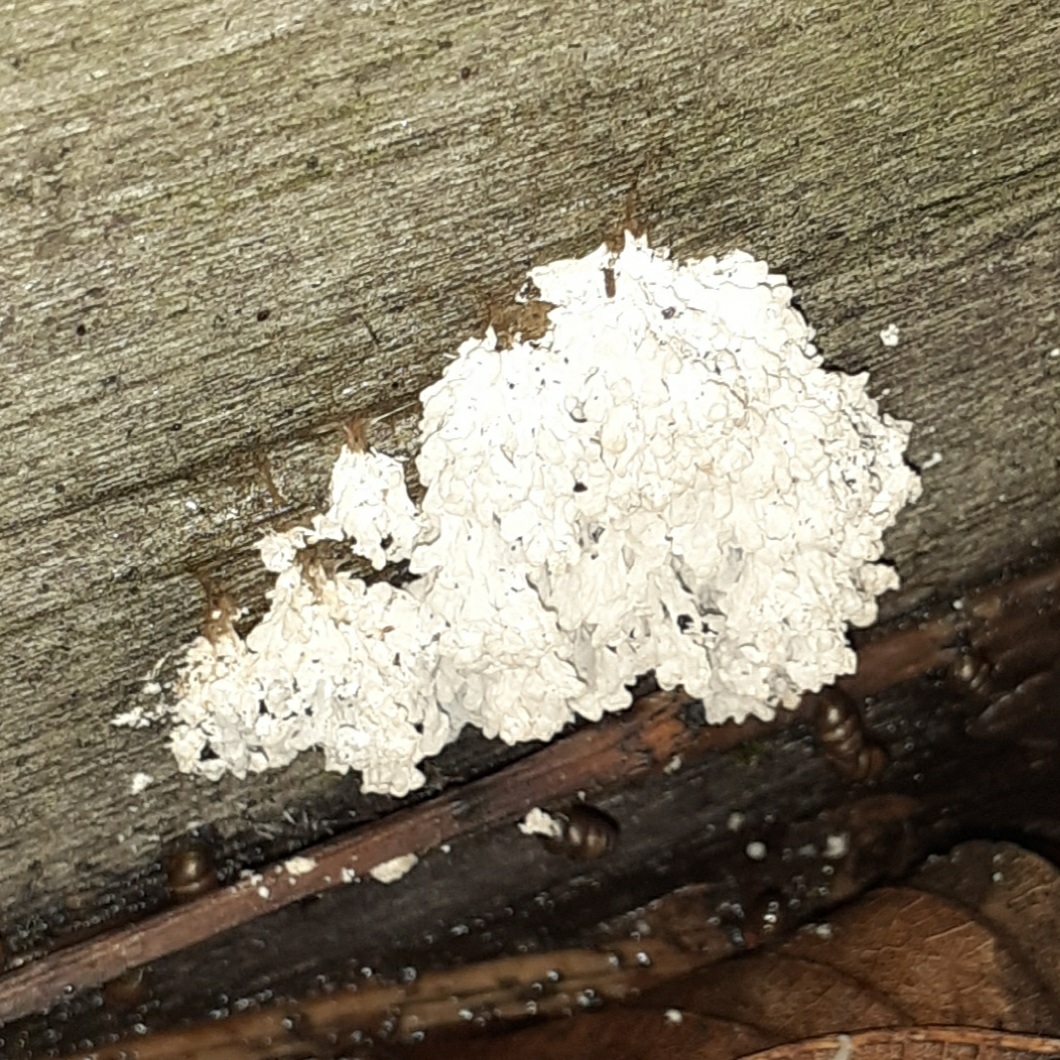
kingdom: Protozoa
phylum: Mycetozoa
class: Myxomycetes
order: Physarales
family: Physaraceae
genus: Didymium
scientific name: Didymium
